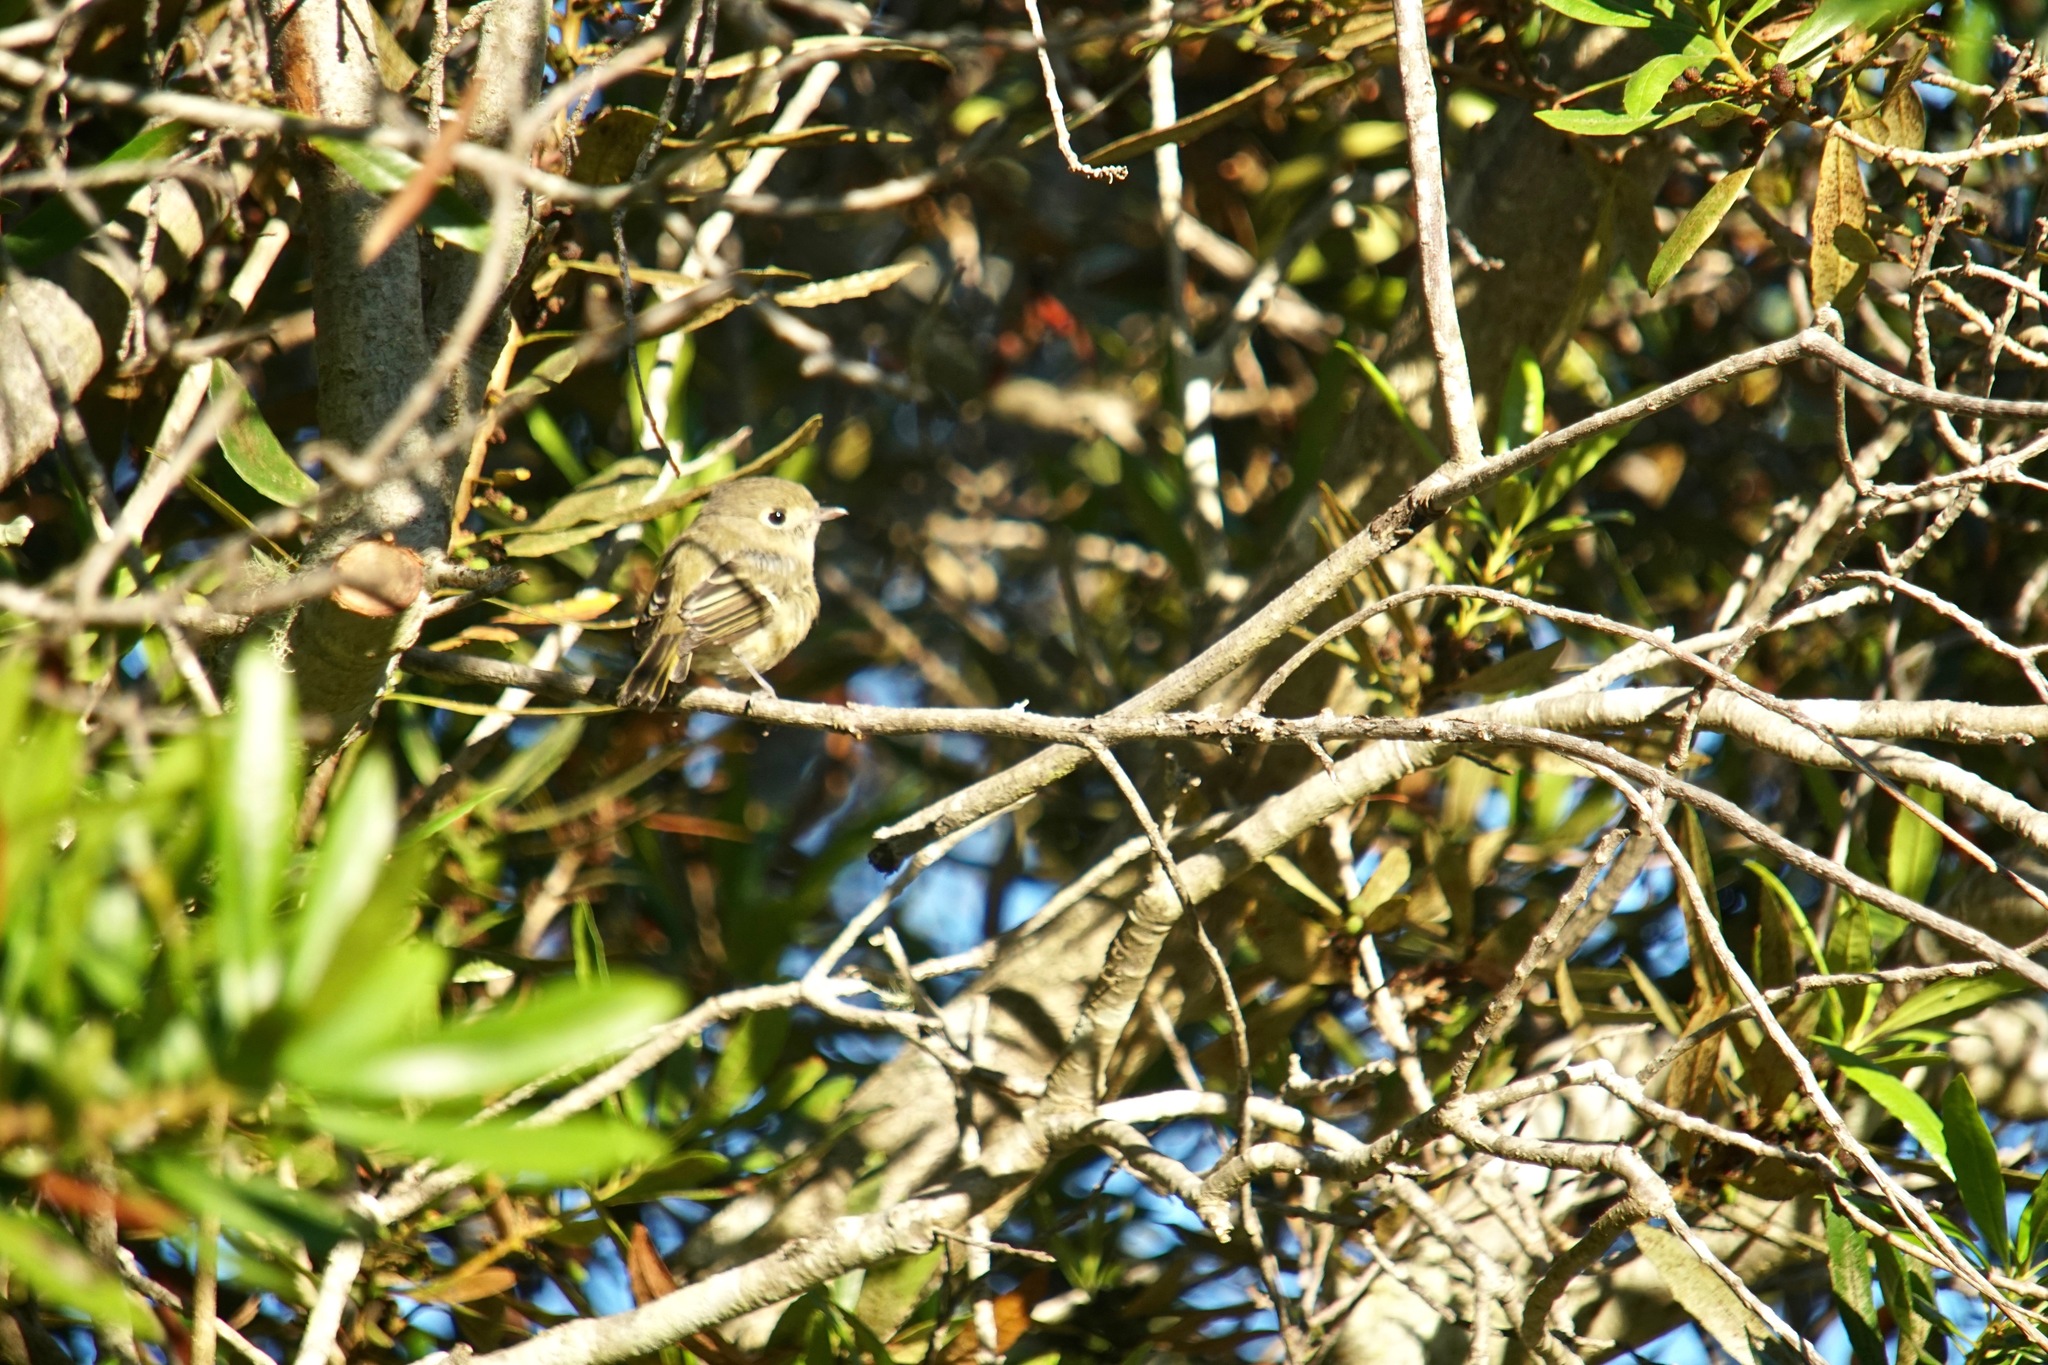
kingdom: Animalia
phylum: Chordata
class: Aves
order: Passeriformes
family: Vireonidae
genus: Vireo
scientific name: Vireo huttoni
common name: Hutton's vireo
